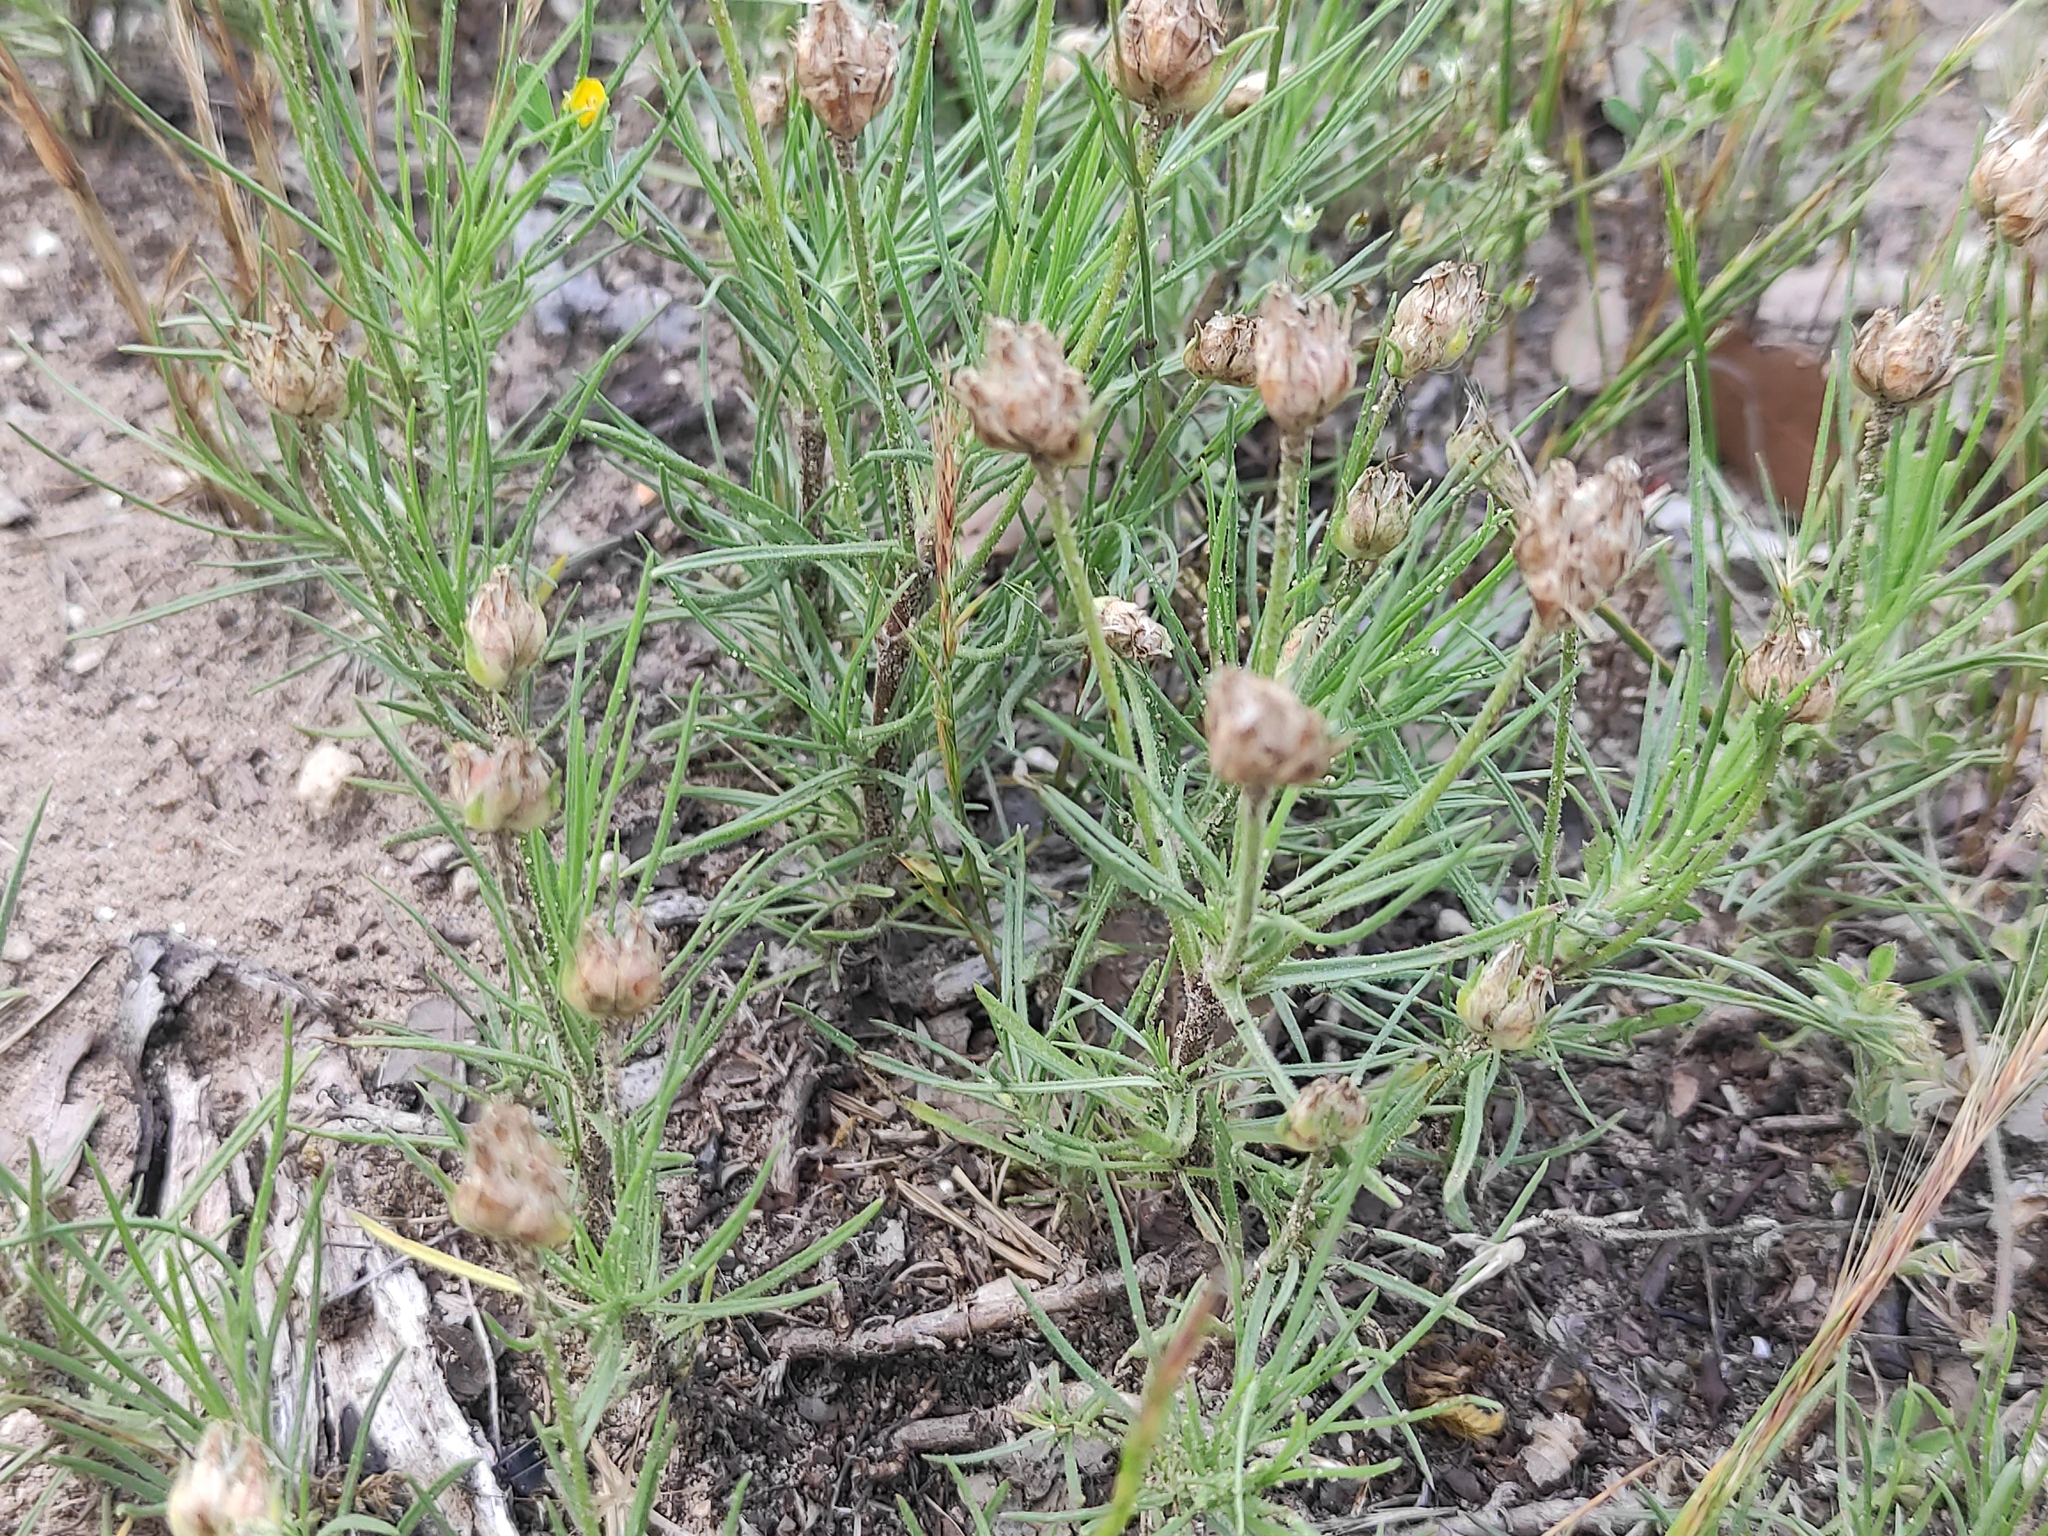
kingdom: Plantae
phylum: Tracheophyta
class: Magnoliopsida
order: Lamiales
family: Plantaginaceae
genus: Plantago
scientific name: Plantago sempervirens
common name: Shrubby plantain
